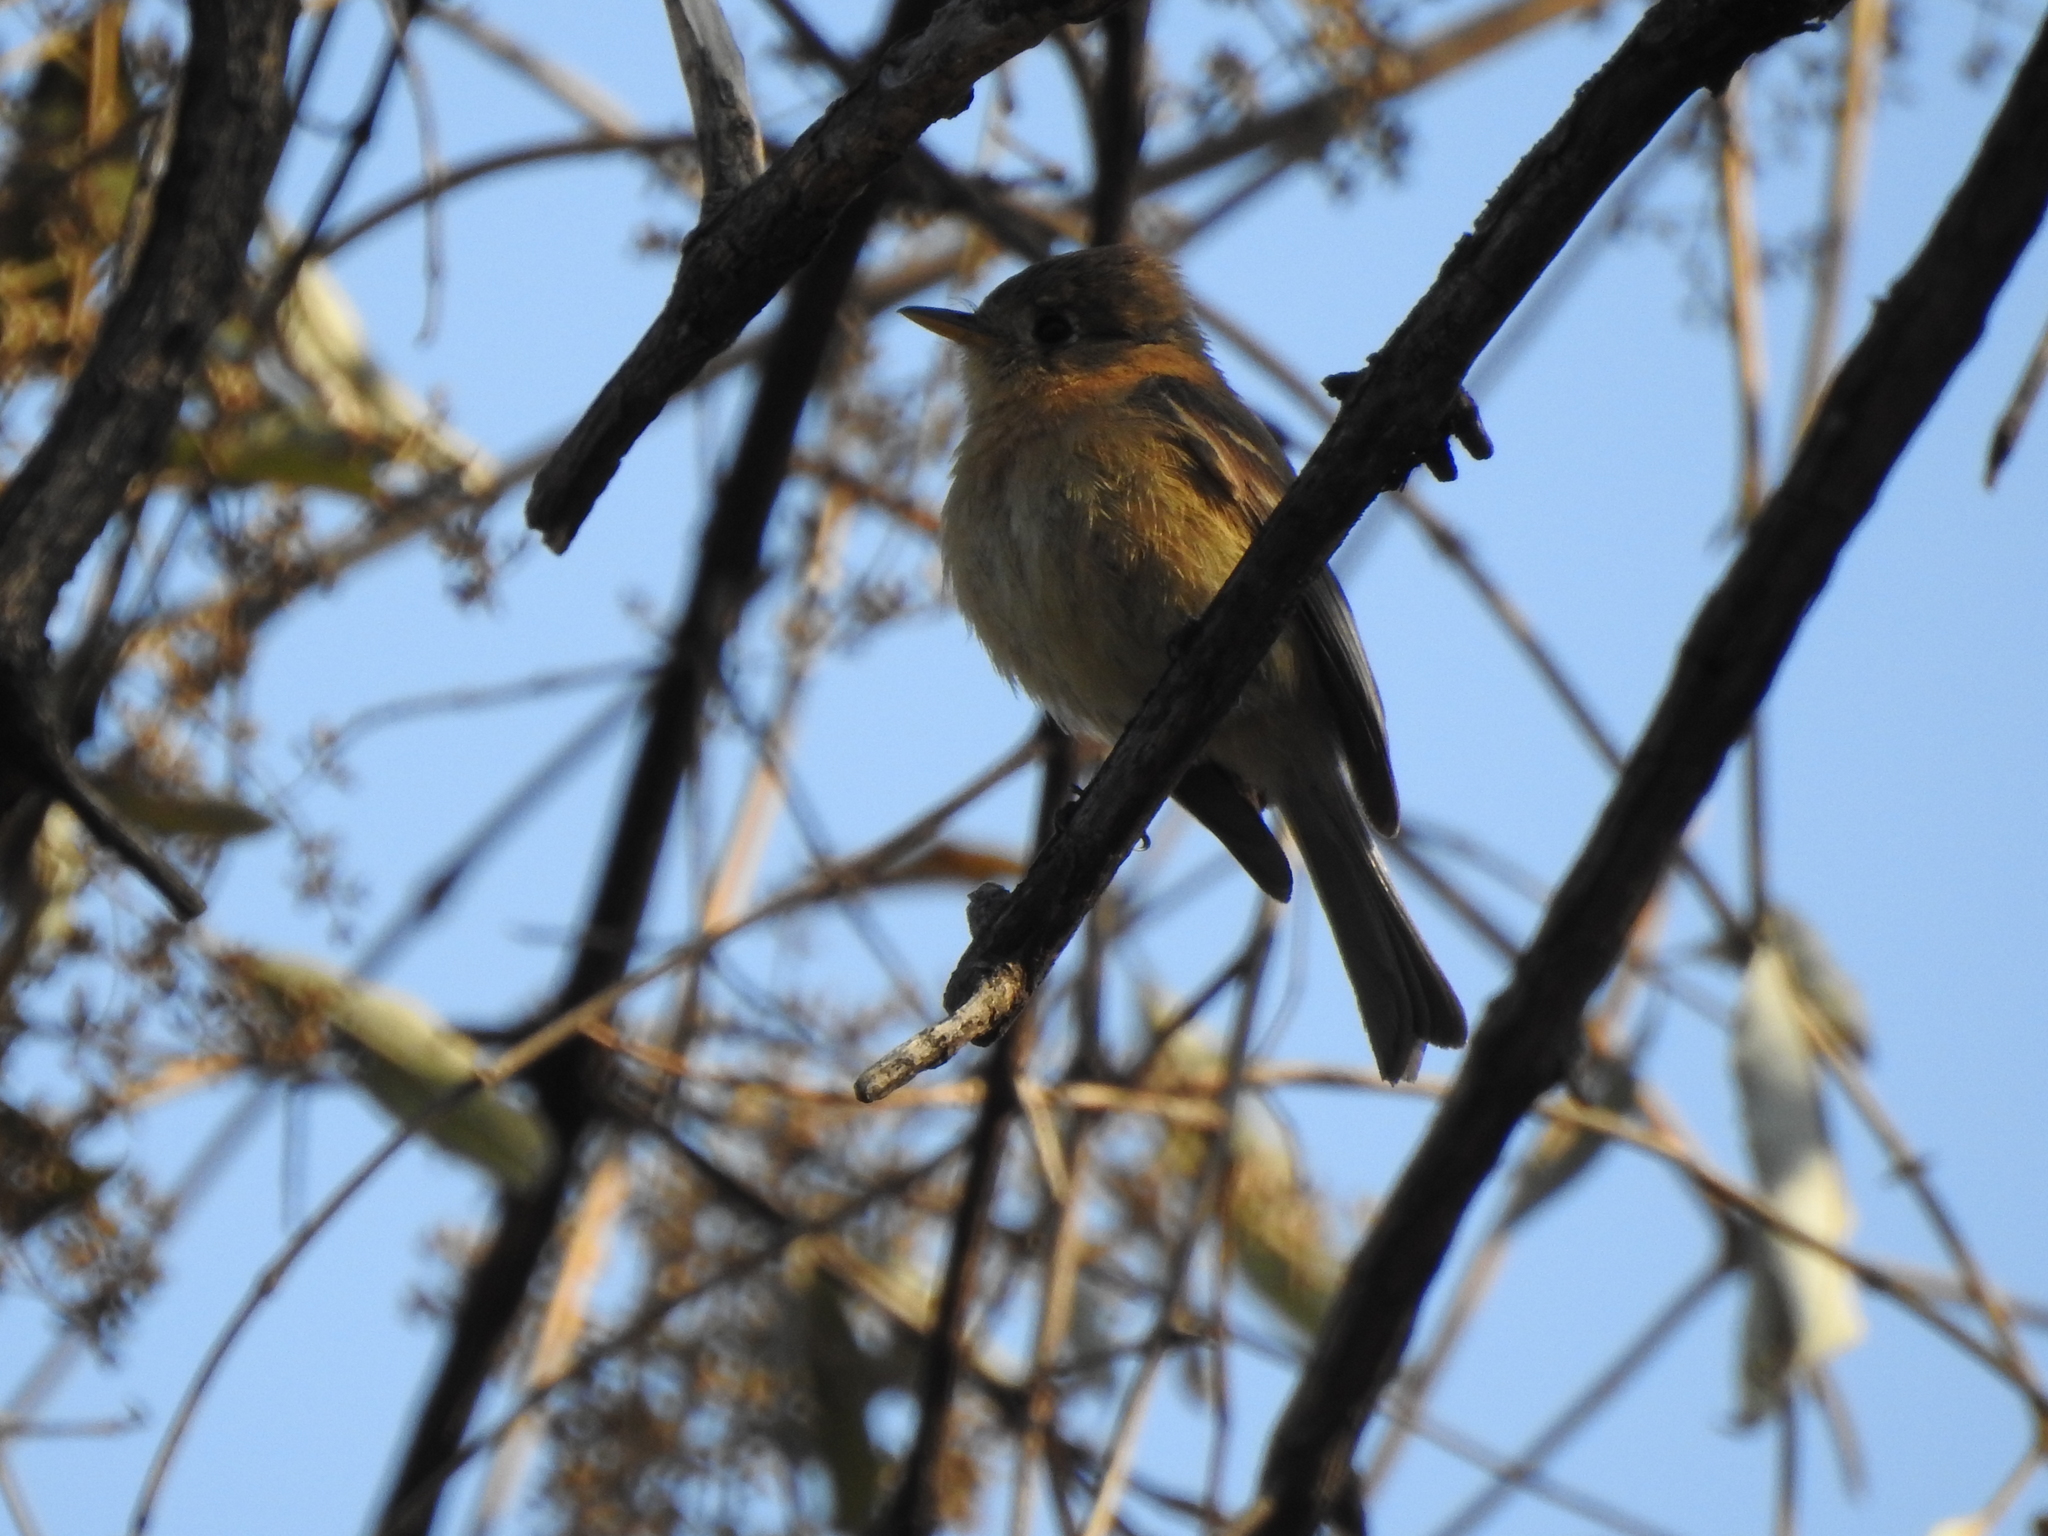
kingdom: Animalia
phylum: Chordata
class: Aves
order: Passeriformes
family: Tyrannidae
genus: Empidonax
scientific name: Empidonax fulvifrons
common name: Buff-breasted flycatcher
